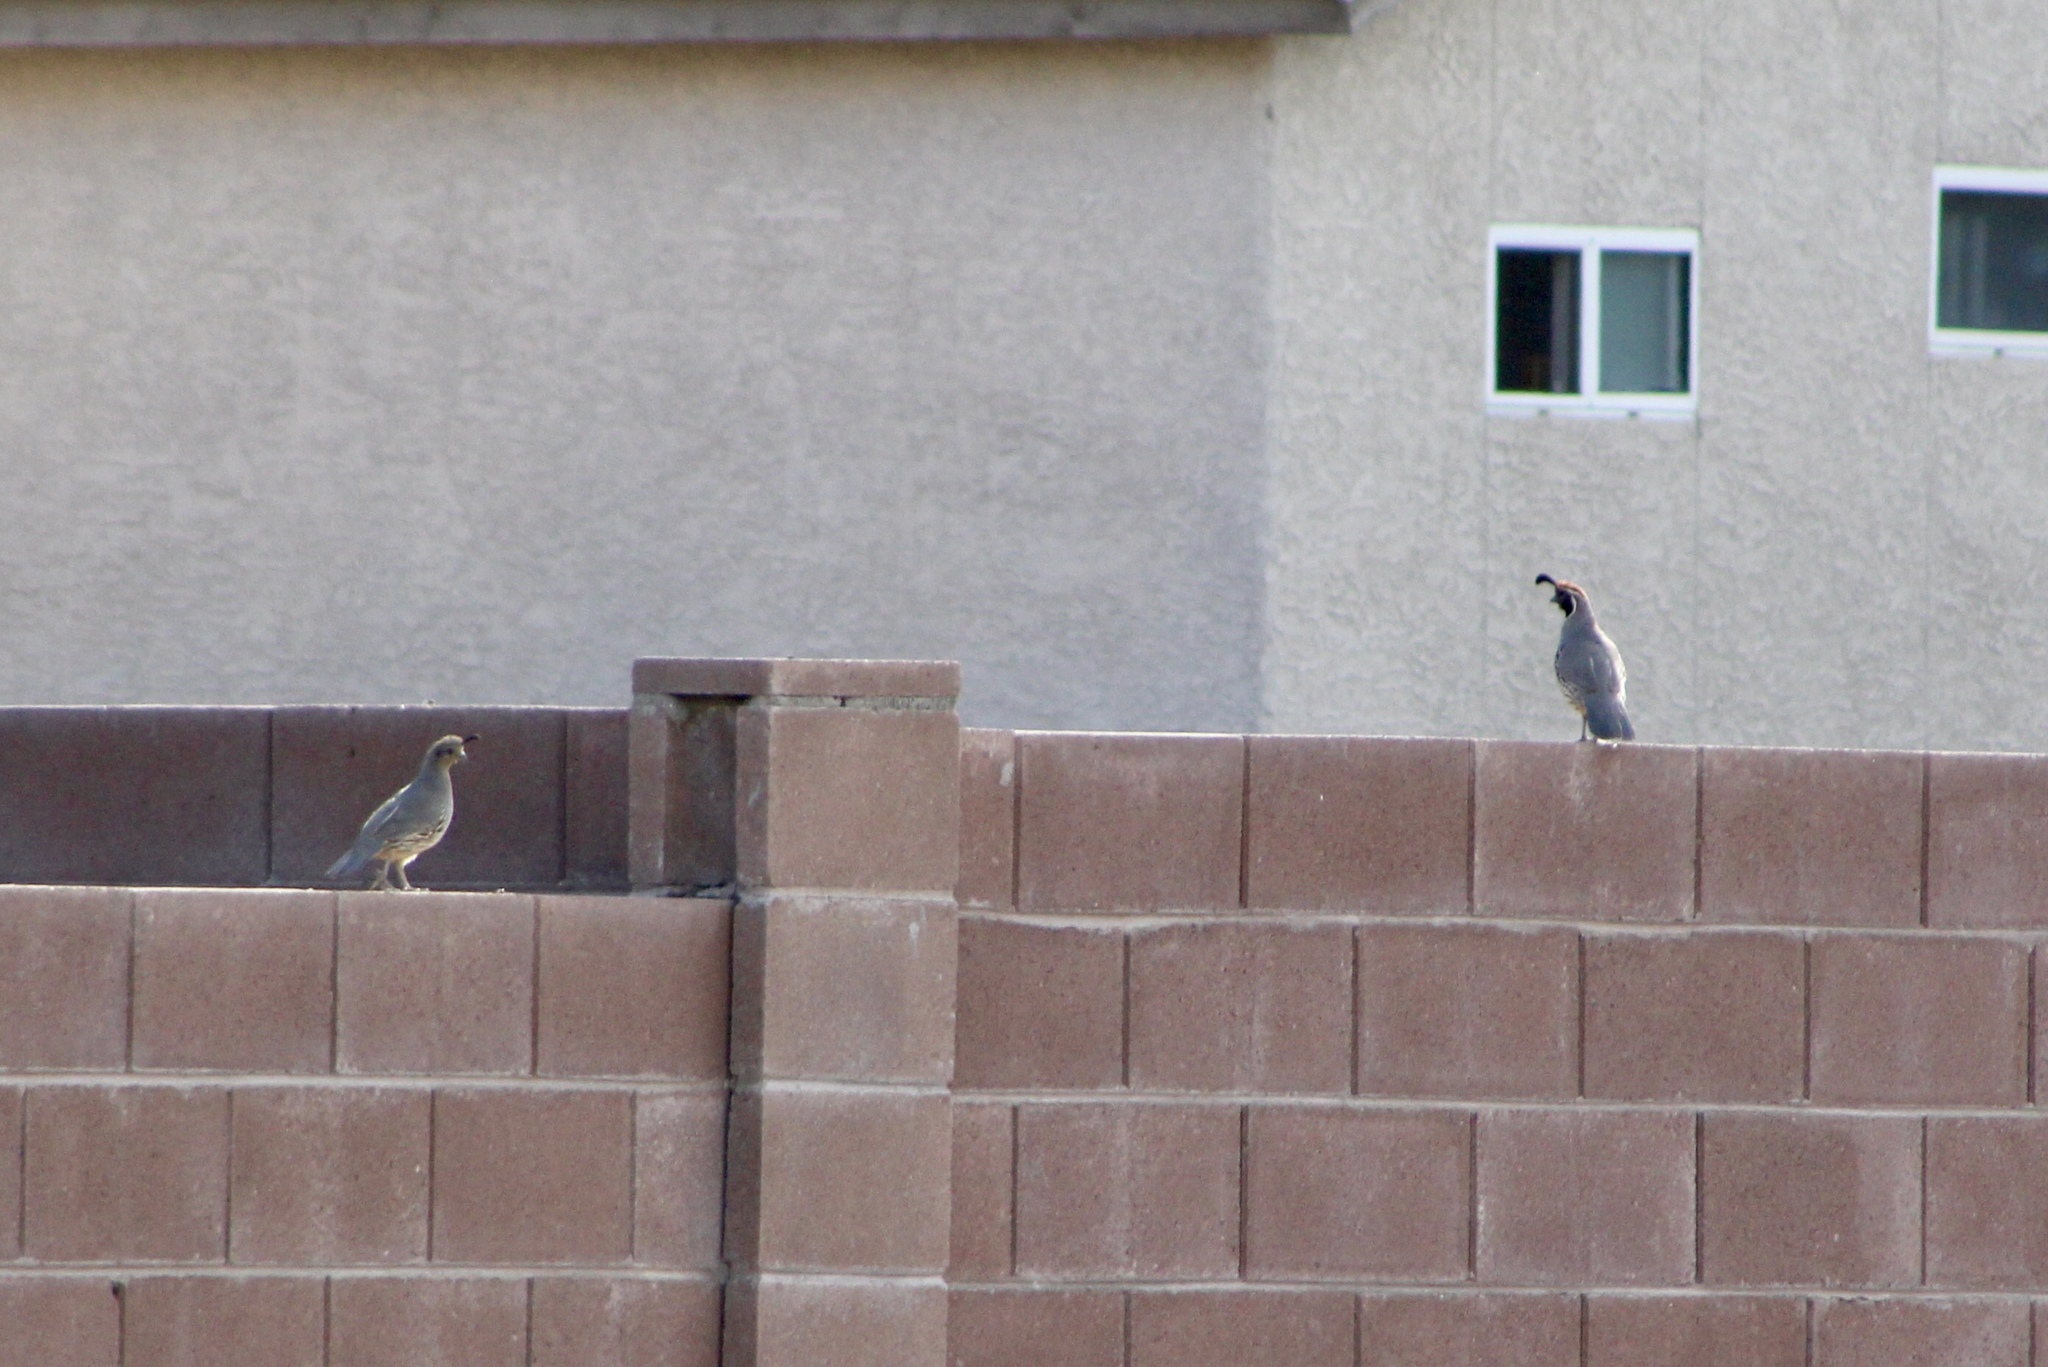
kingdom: Animalia
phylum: Chordata
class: Aves
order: Galliformes
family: Odontophoridae
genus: Callipepla
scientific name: Callipepla gambelii
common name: Gambel's quail
